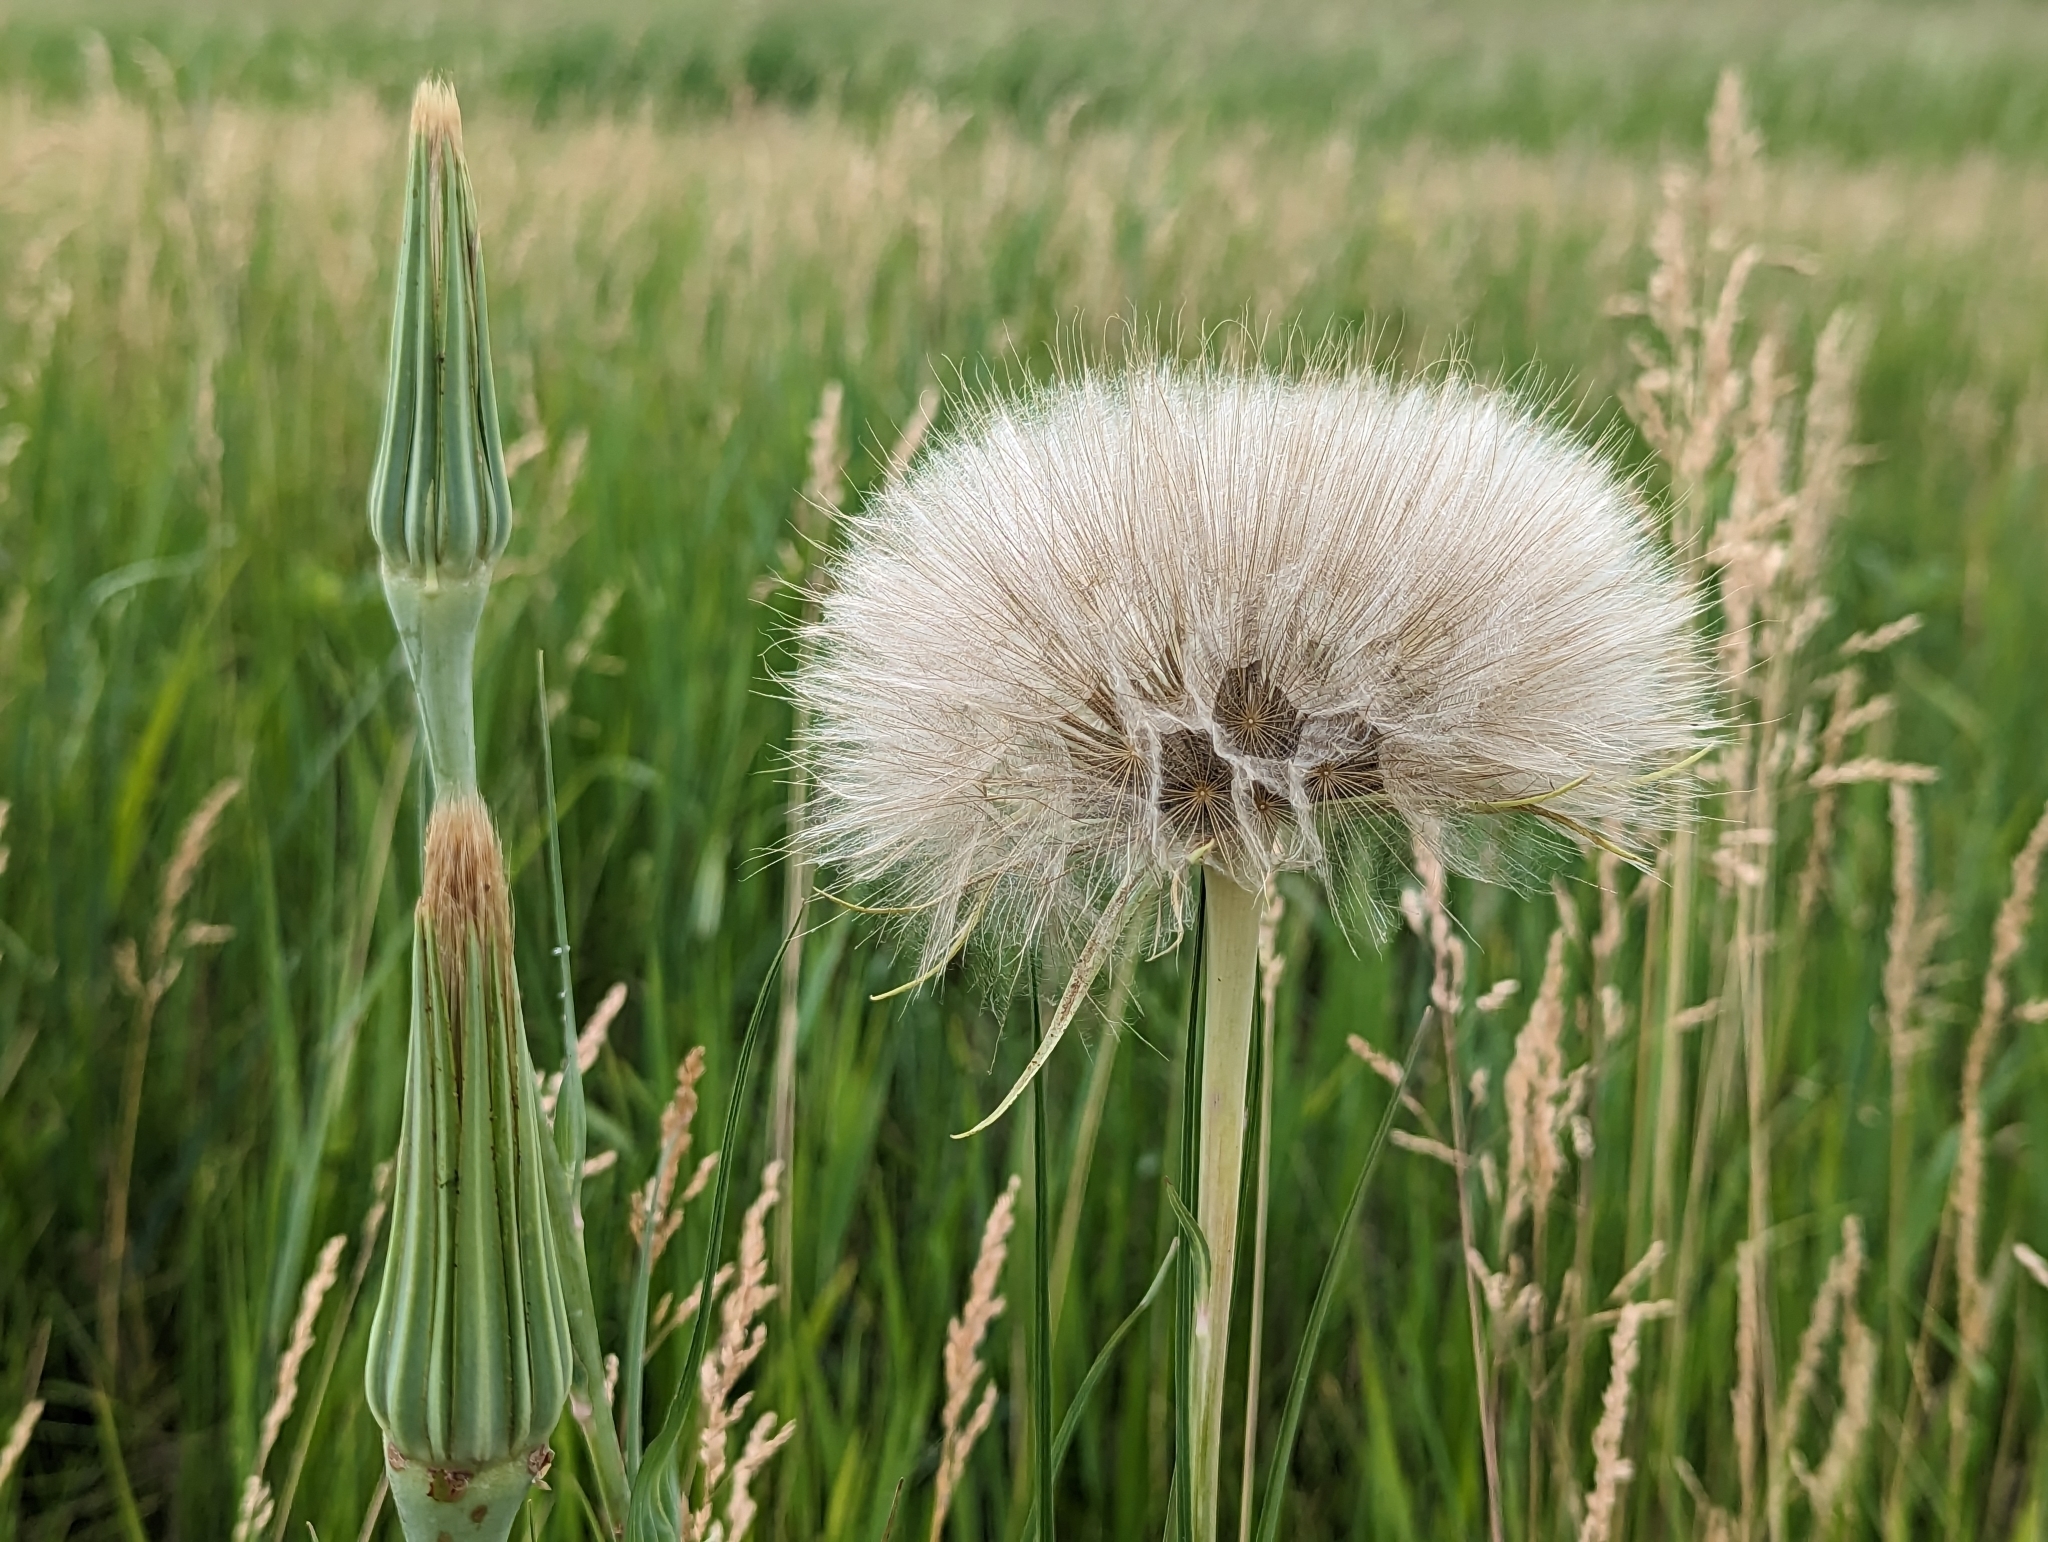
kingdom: Plantae
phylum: Tracheophyta
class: Magnoliopsida
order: Asterales
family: Asteraceae
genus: Tragopogon
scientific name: Tragopogon dubius
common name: Yellow salsify
